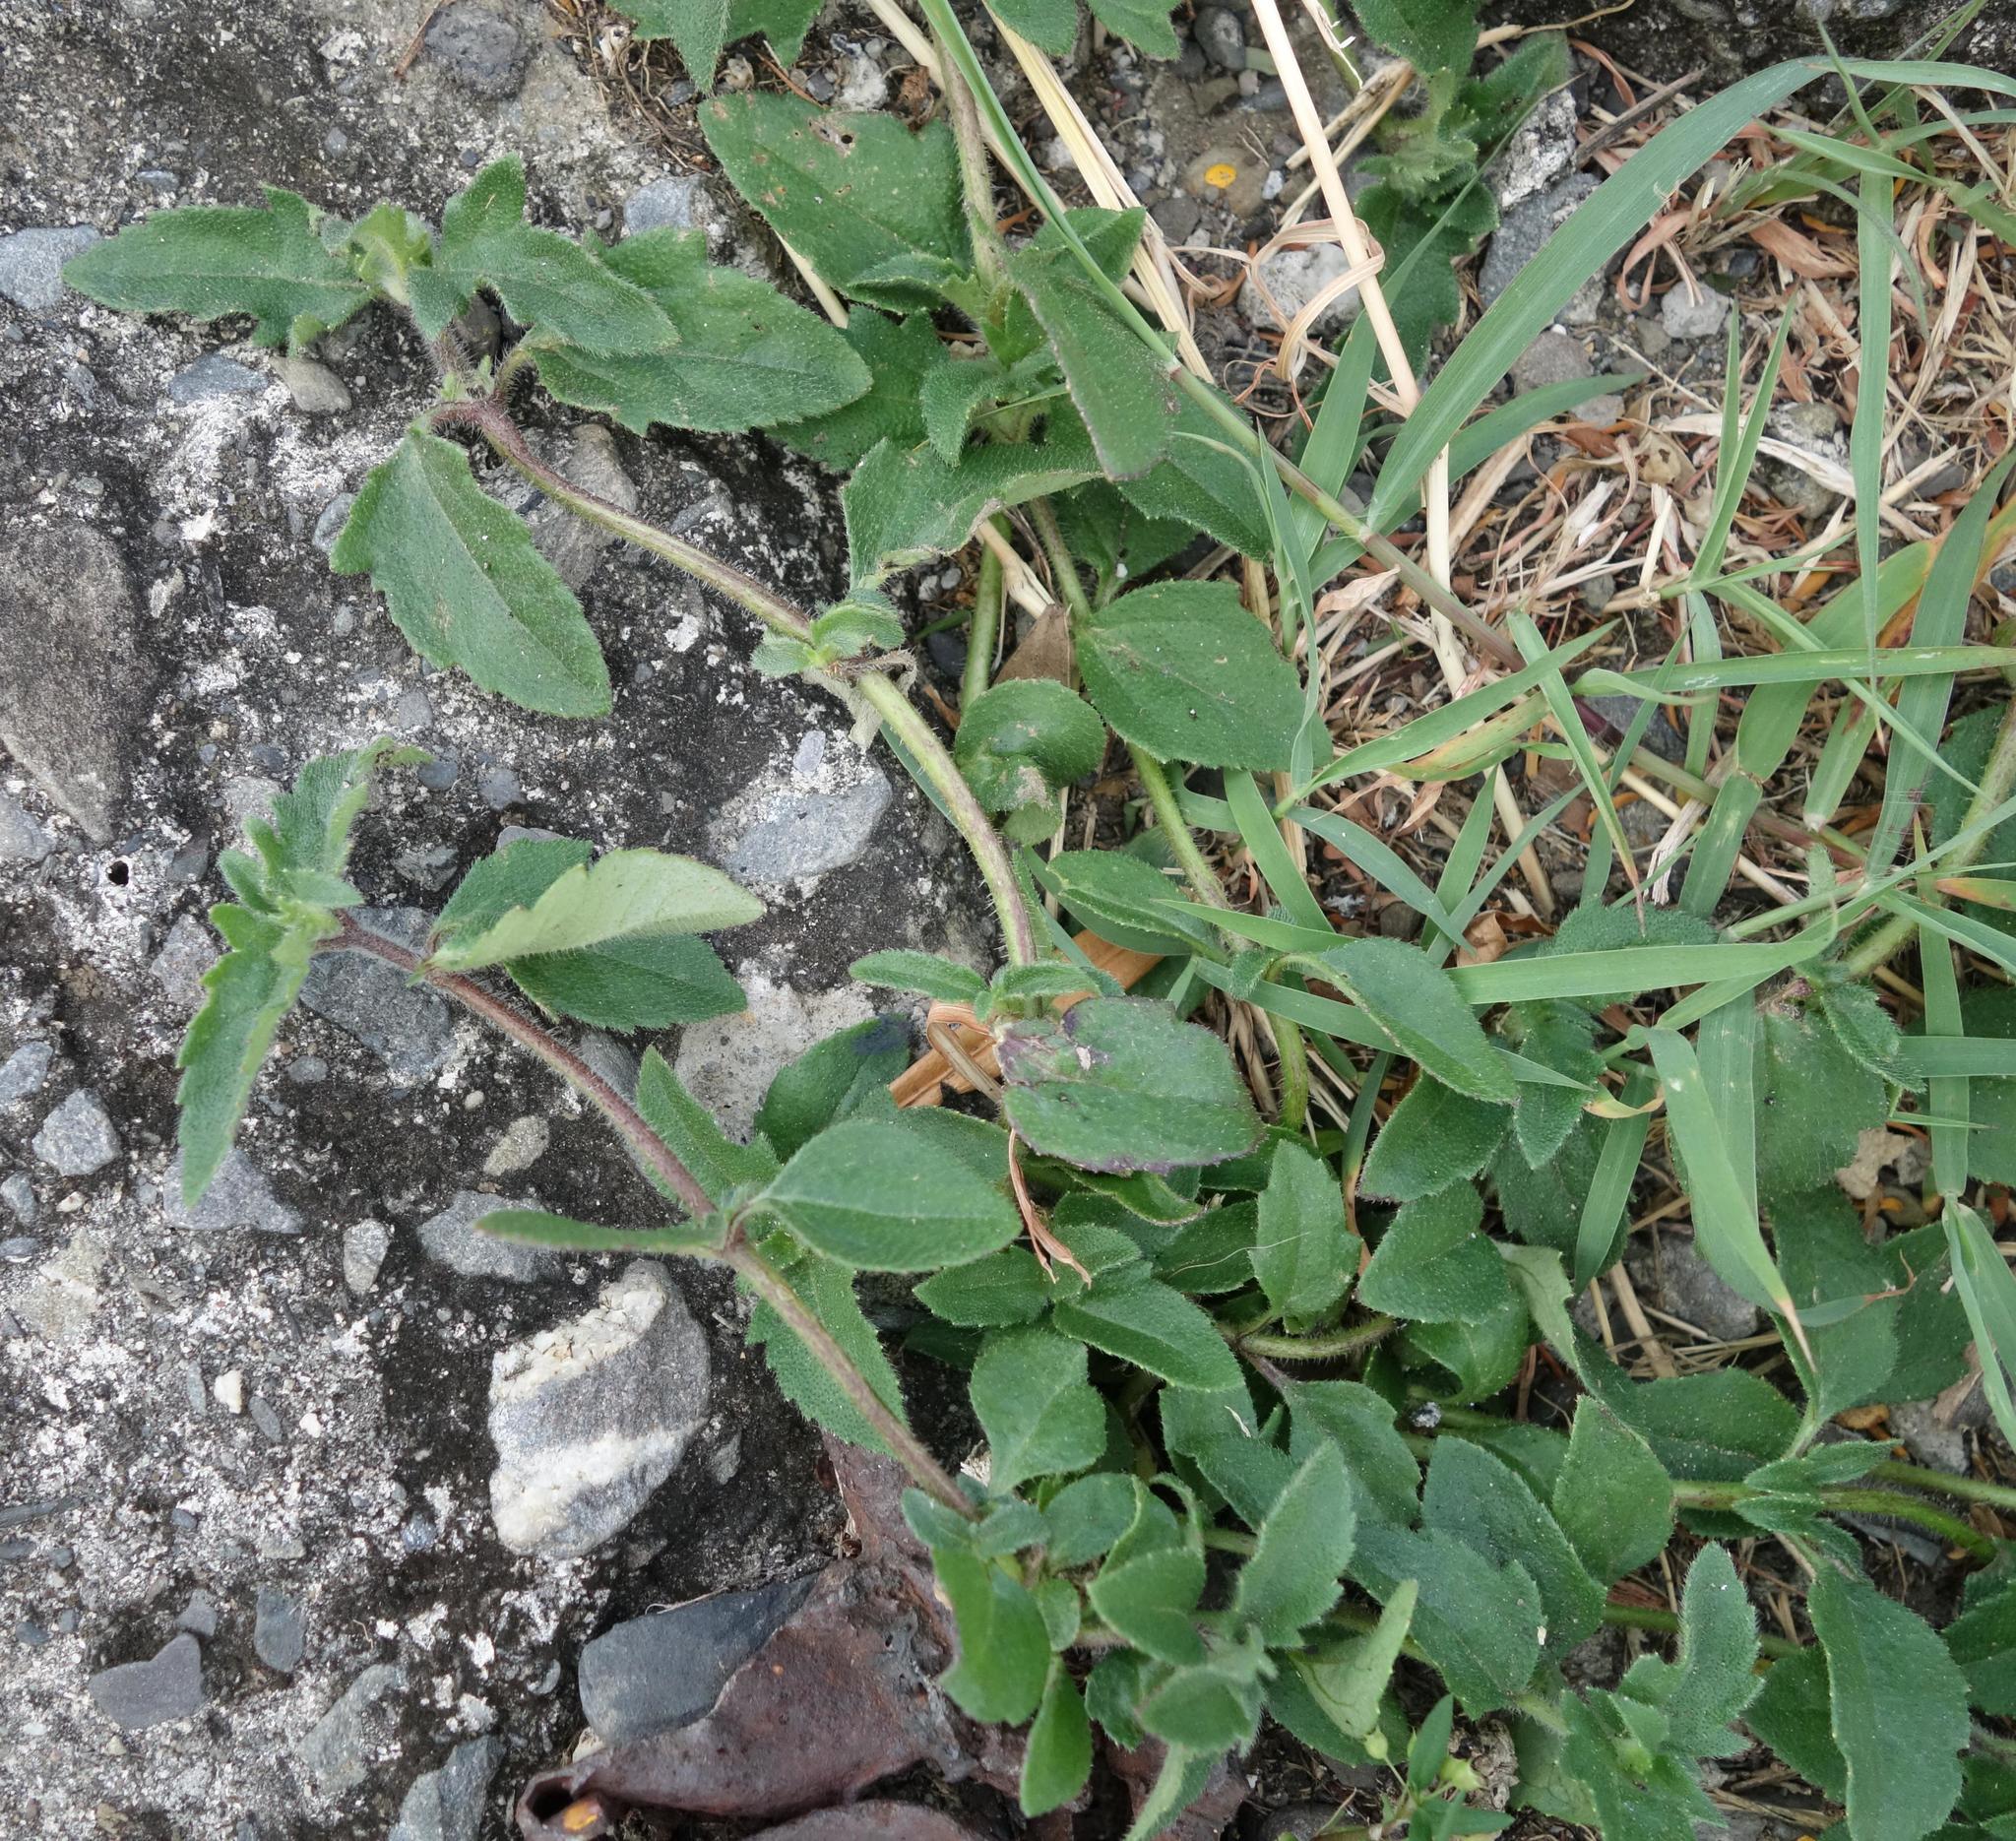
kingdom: Plantae
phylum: Tracheophyta
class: Magnoliopsida
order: Asterales
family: Asteraceae
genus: Tridax
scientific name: Tridax procumbens
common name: Coatbuttons
